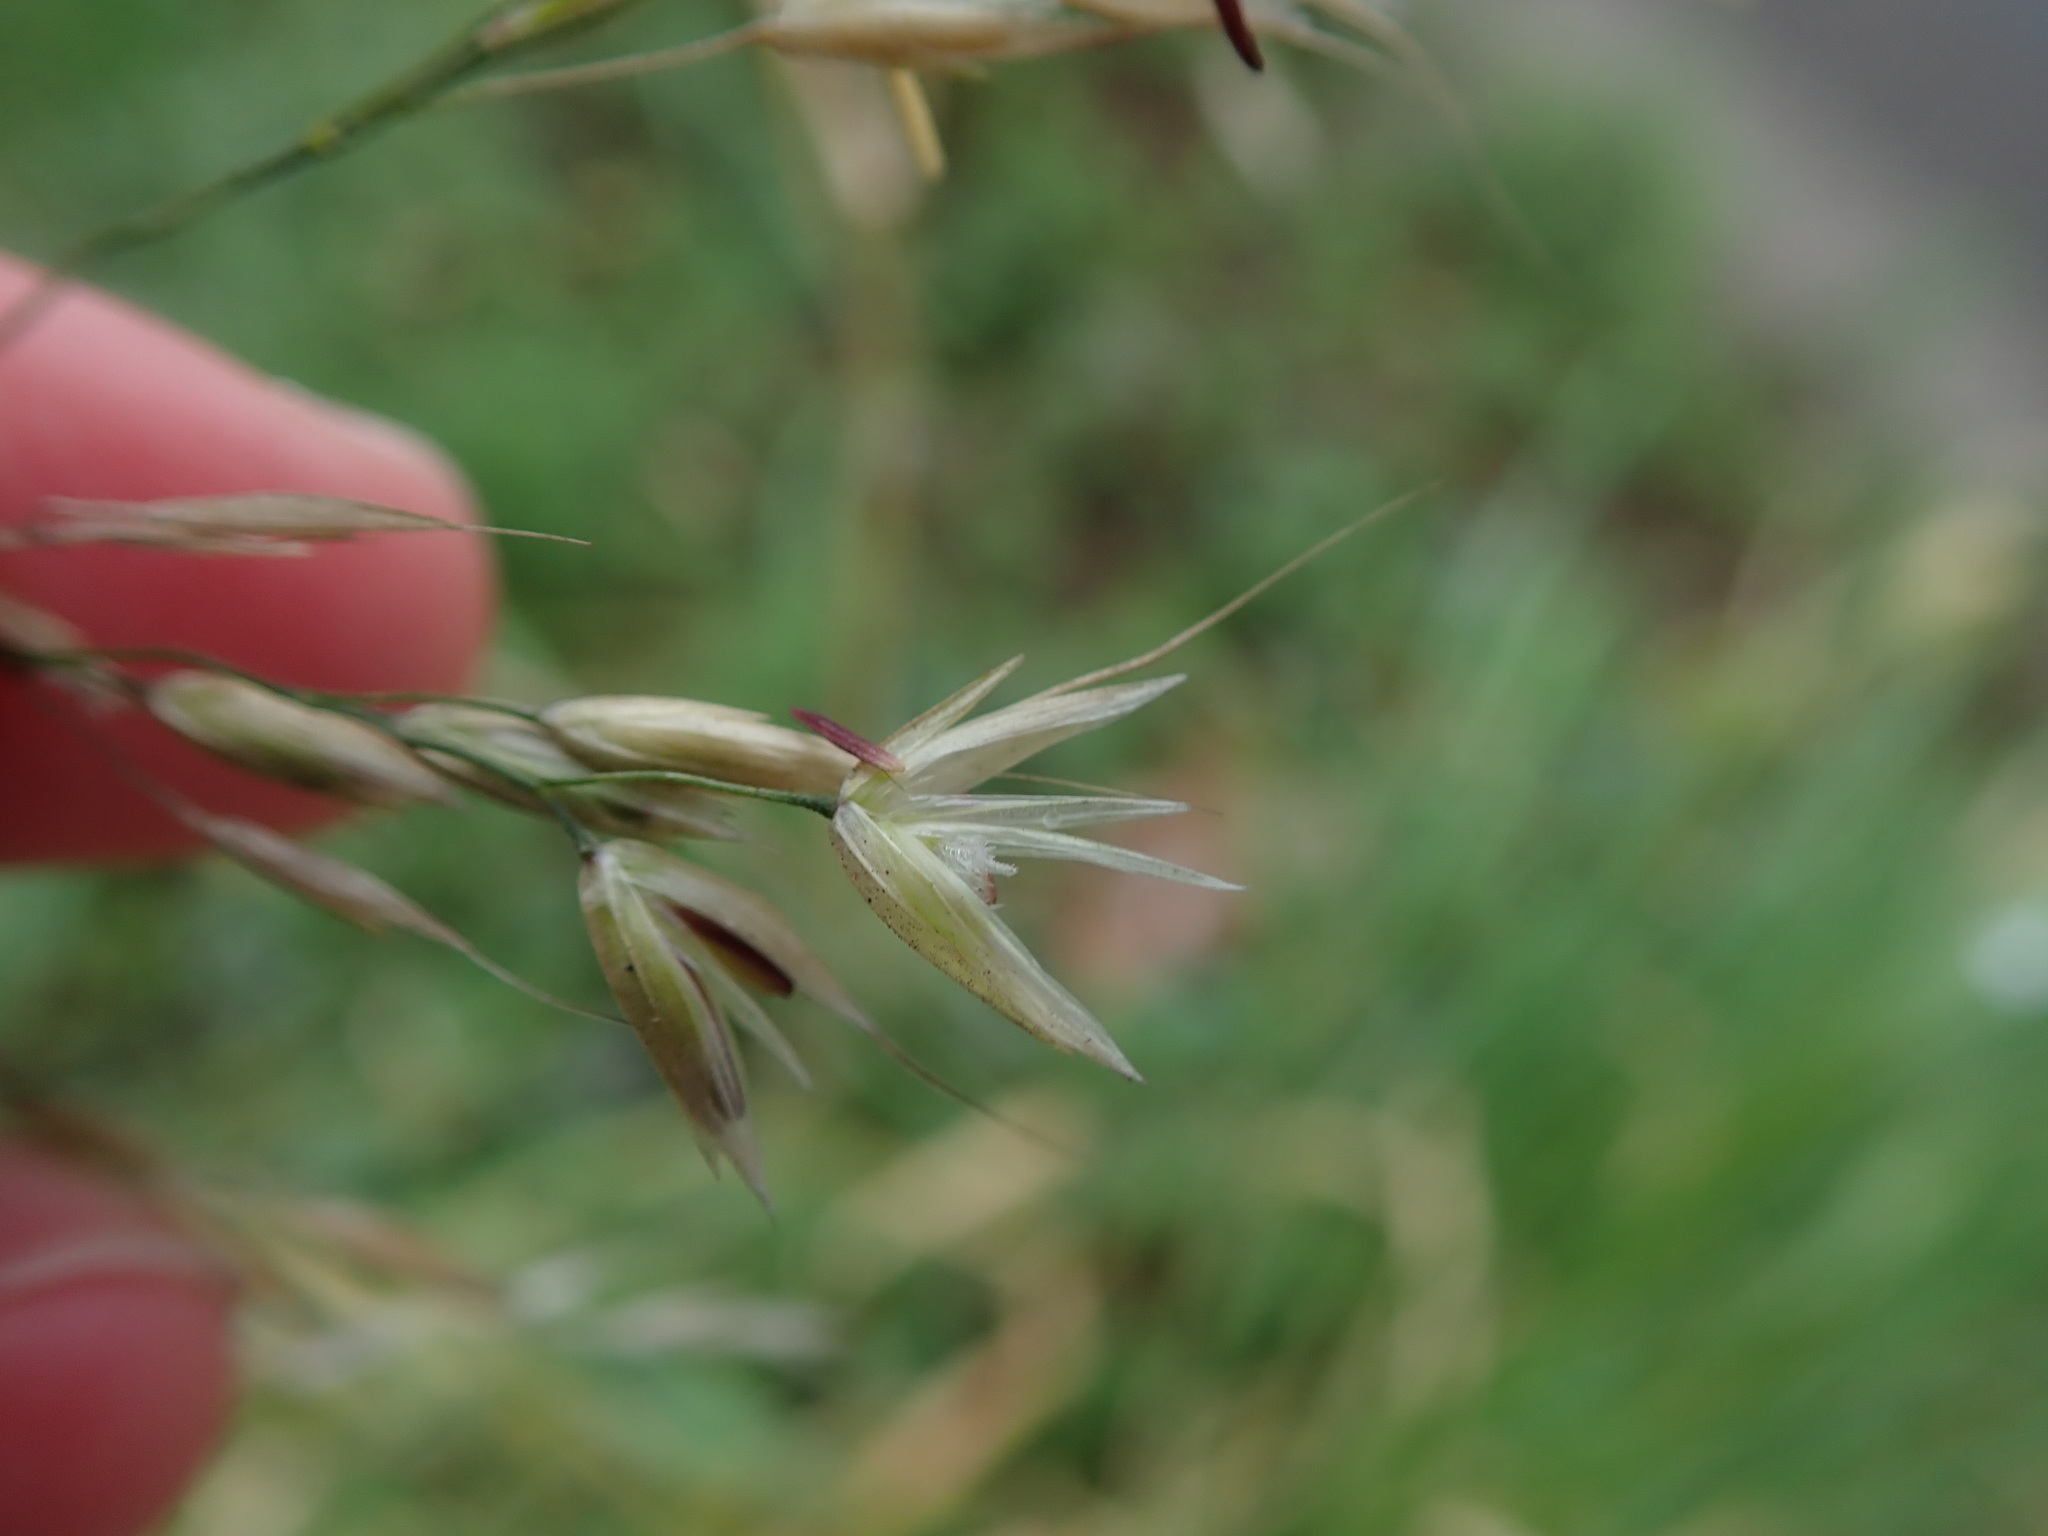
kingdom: Plantae
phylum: Tracheophyta
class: Liliopsida
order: Poales
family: Poaceae
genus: Arrhenatherum
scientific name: Arrhenatherum elatius
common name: Tall oatgrass
